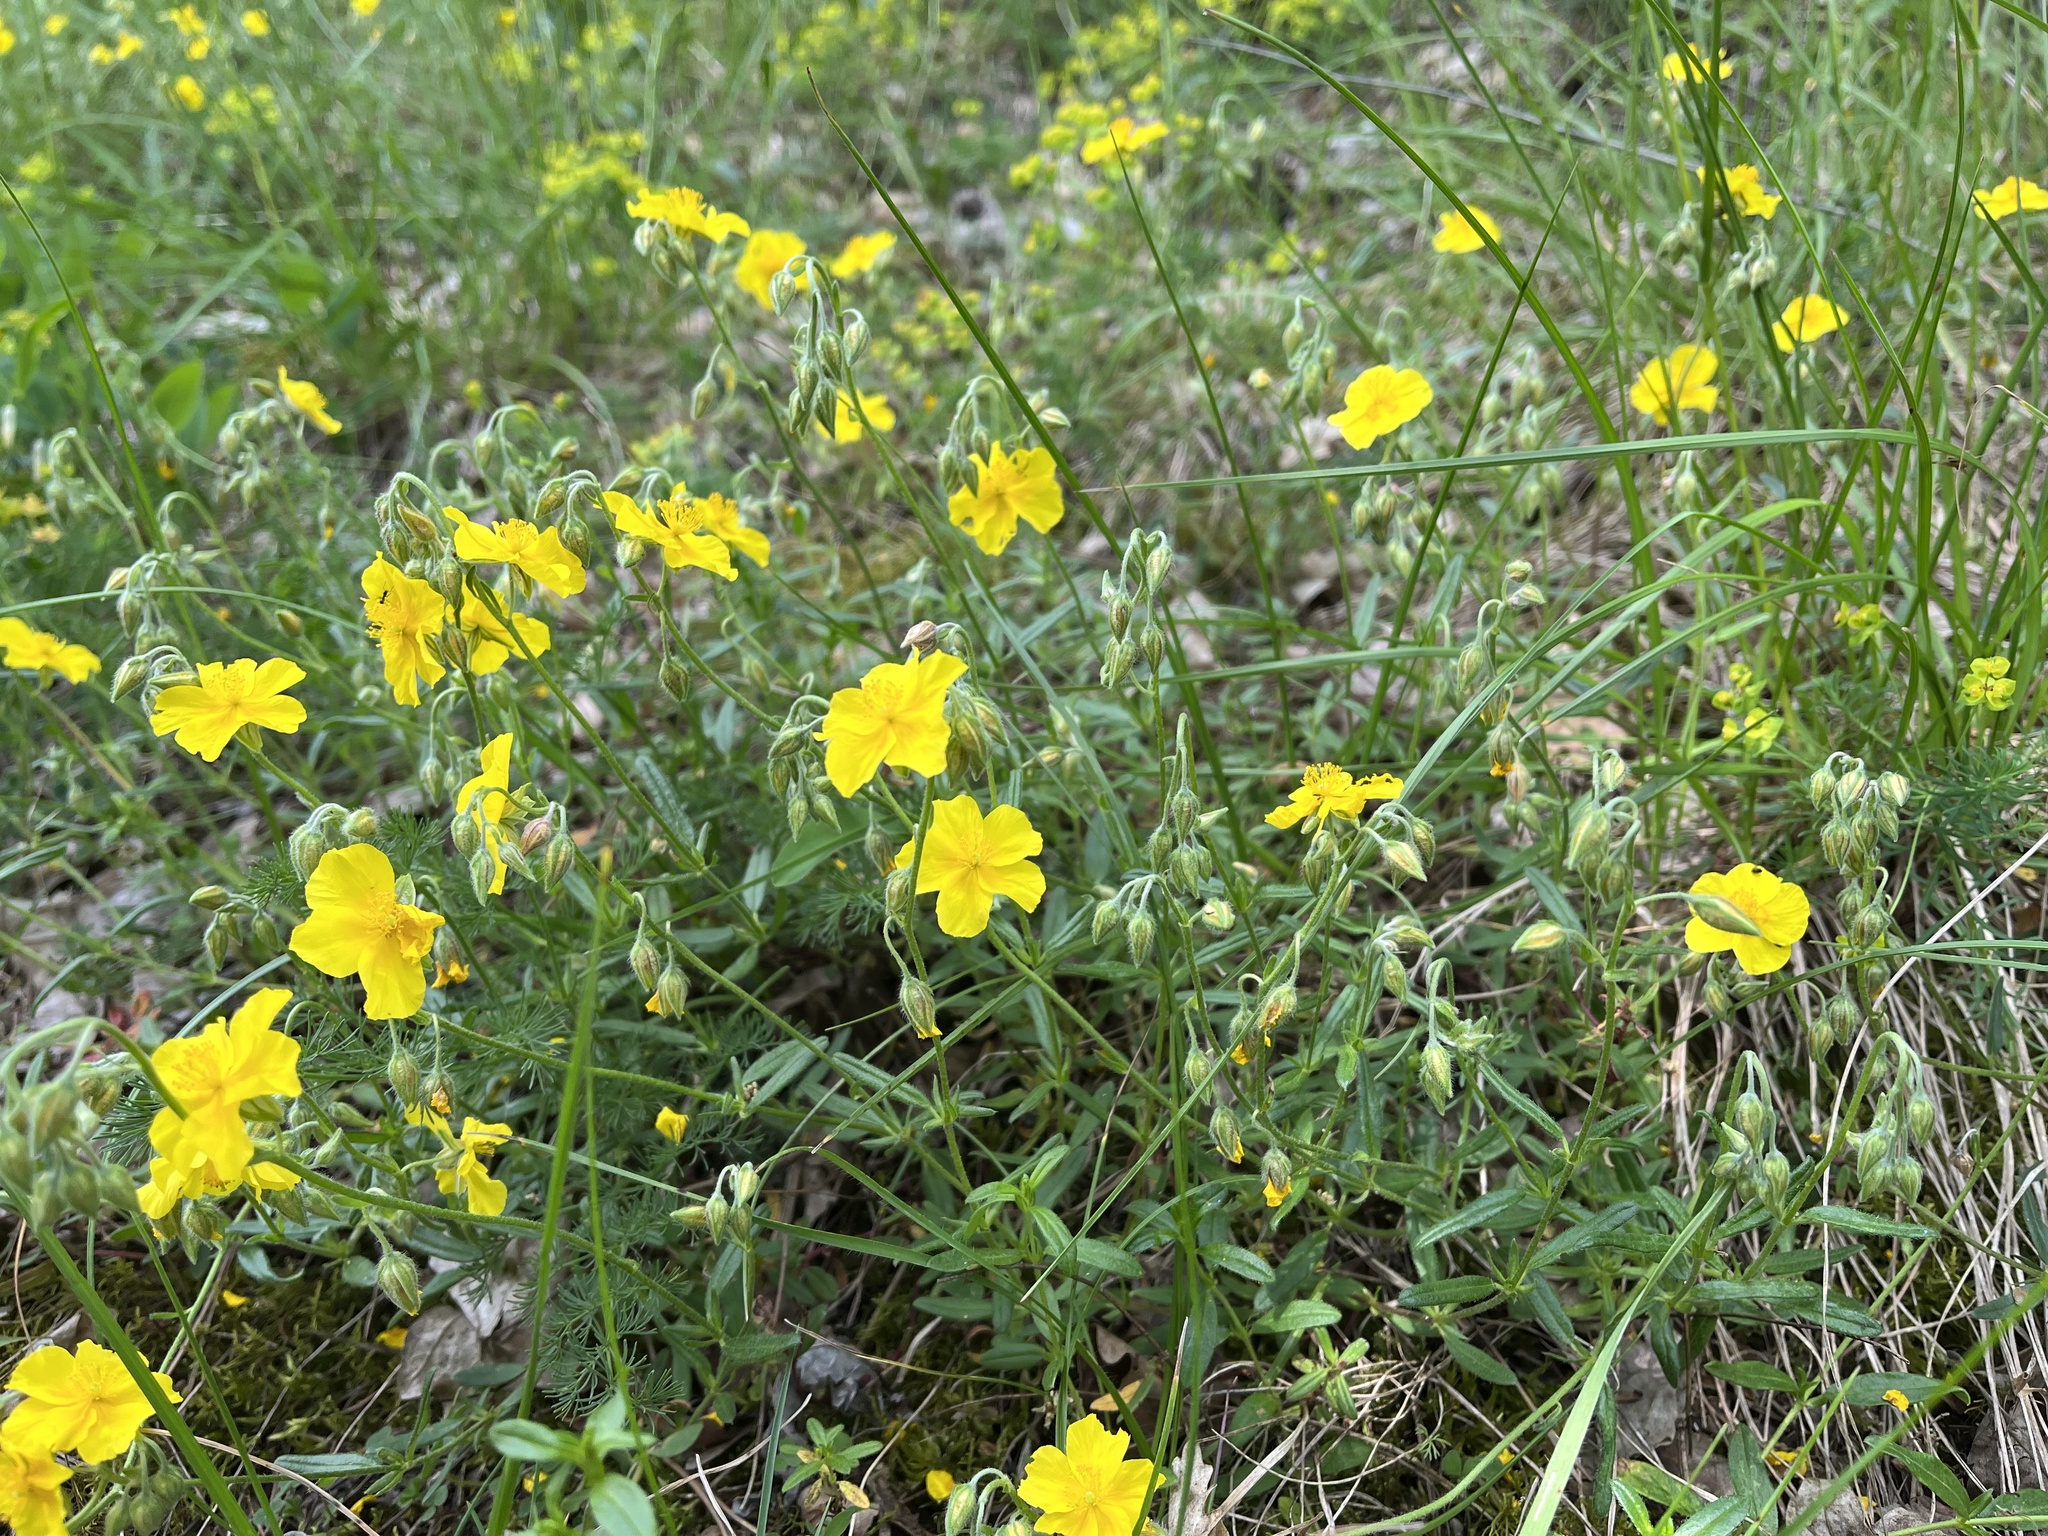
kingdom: Plantae
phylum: Tracheophyta
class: Magnoliopsida
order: Malvales
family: Cistaceae
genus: Helianthemum
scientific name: Helianthemum nummularium
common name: Common rock-rose
